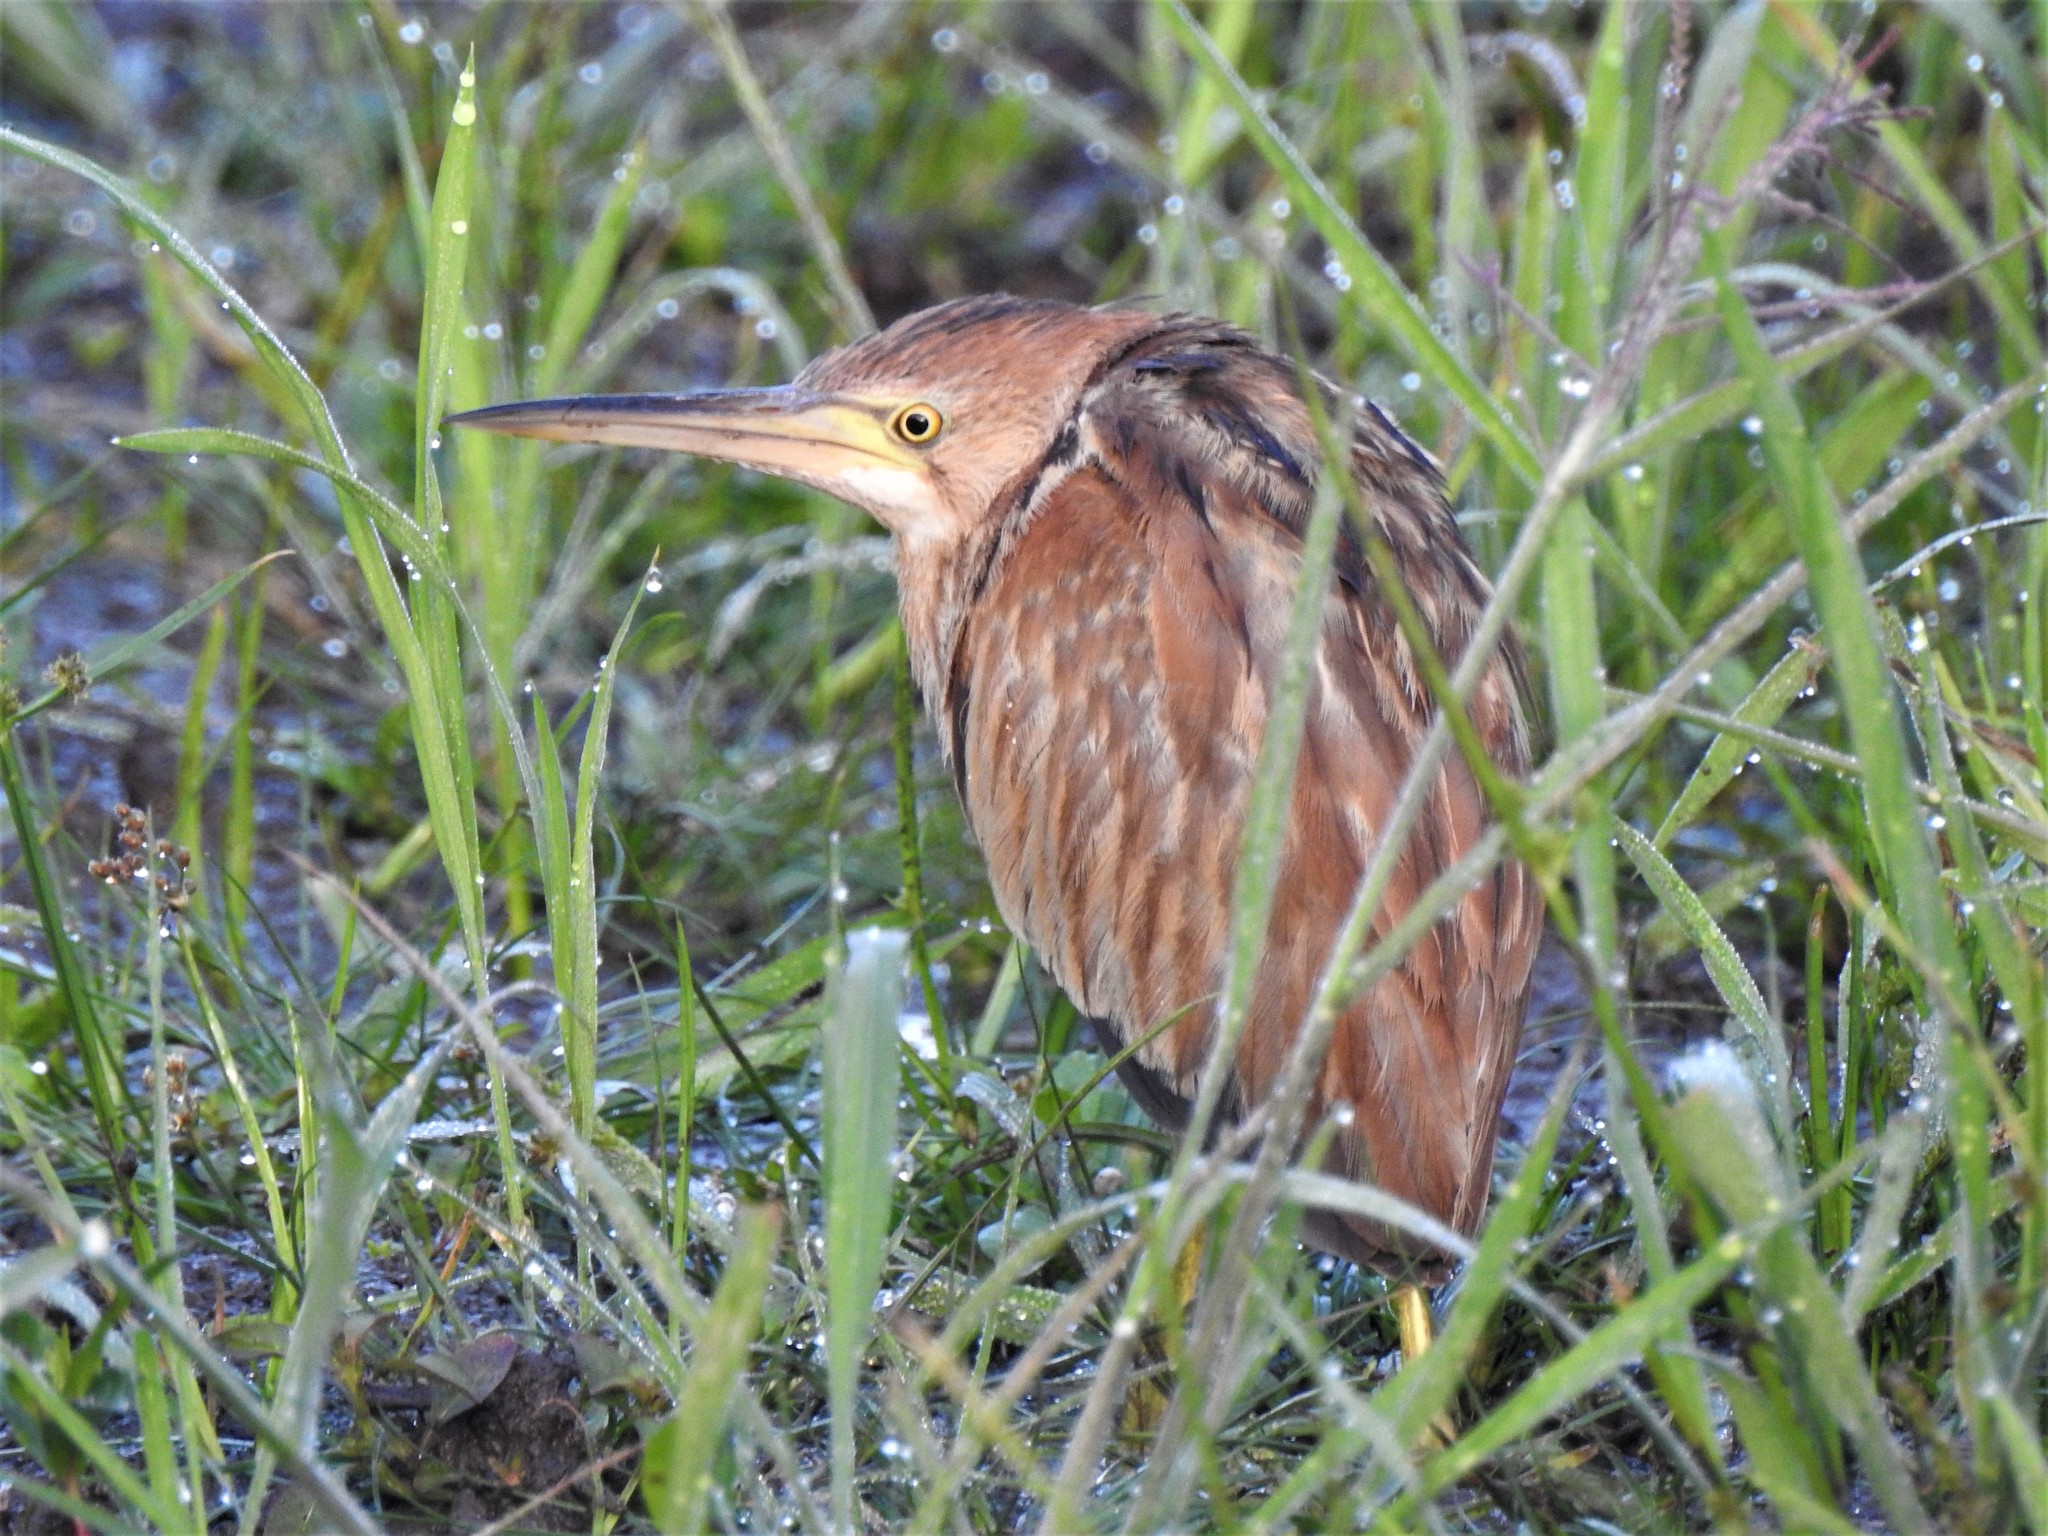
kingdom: Animalia
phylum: Chordata
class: Aves
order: Pelecaniformes
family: Ardeidae
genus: Ixobrychus
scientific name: Ixobrychus sinensis
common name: Yellow bittern
